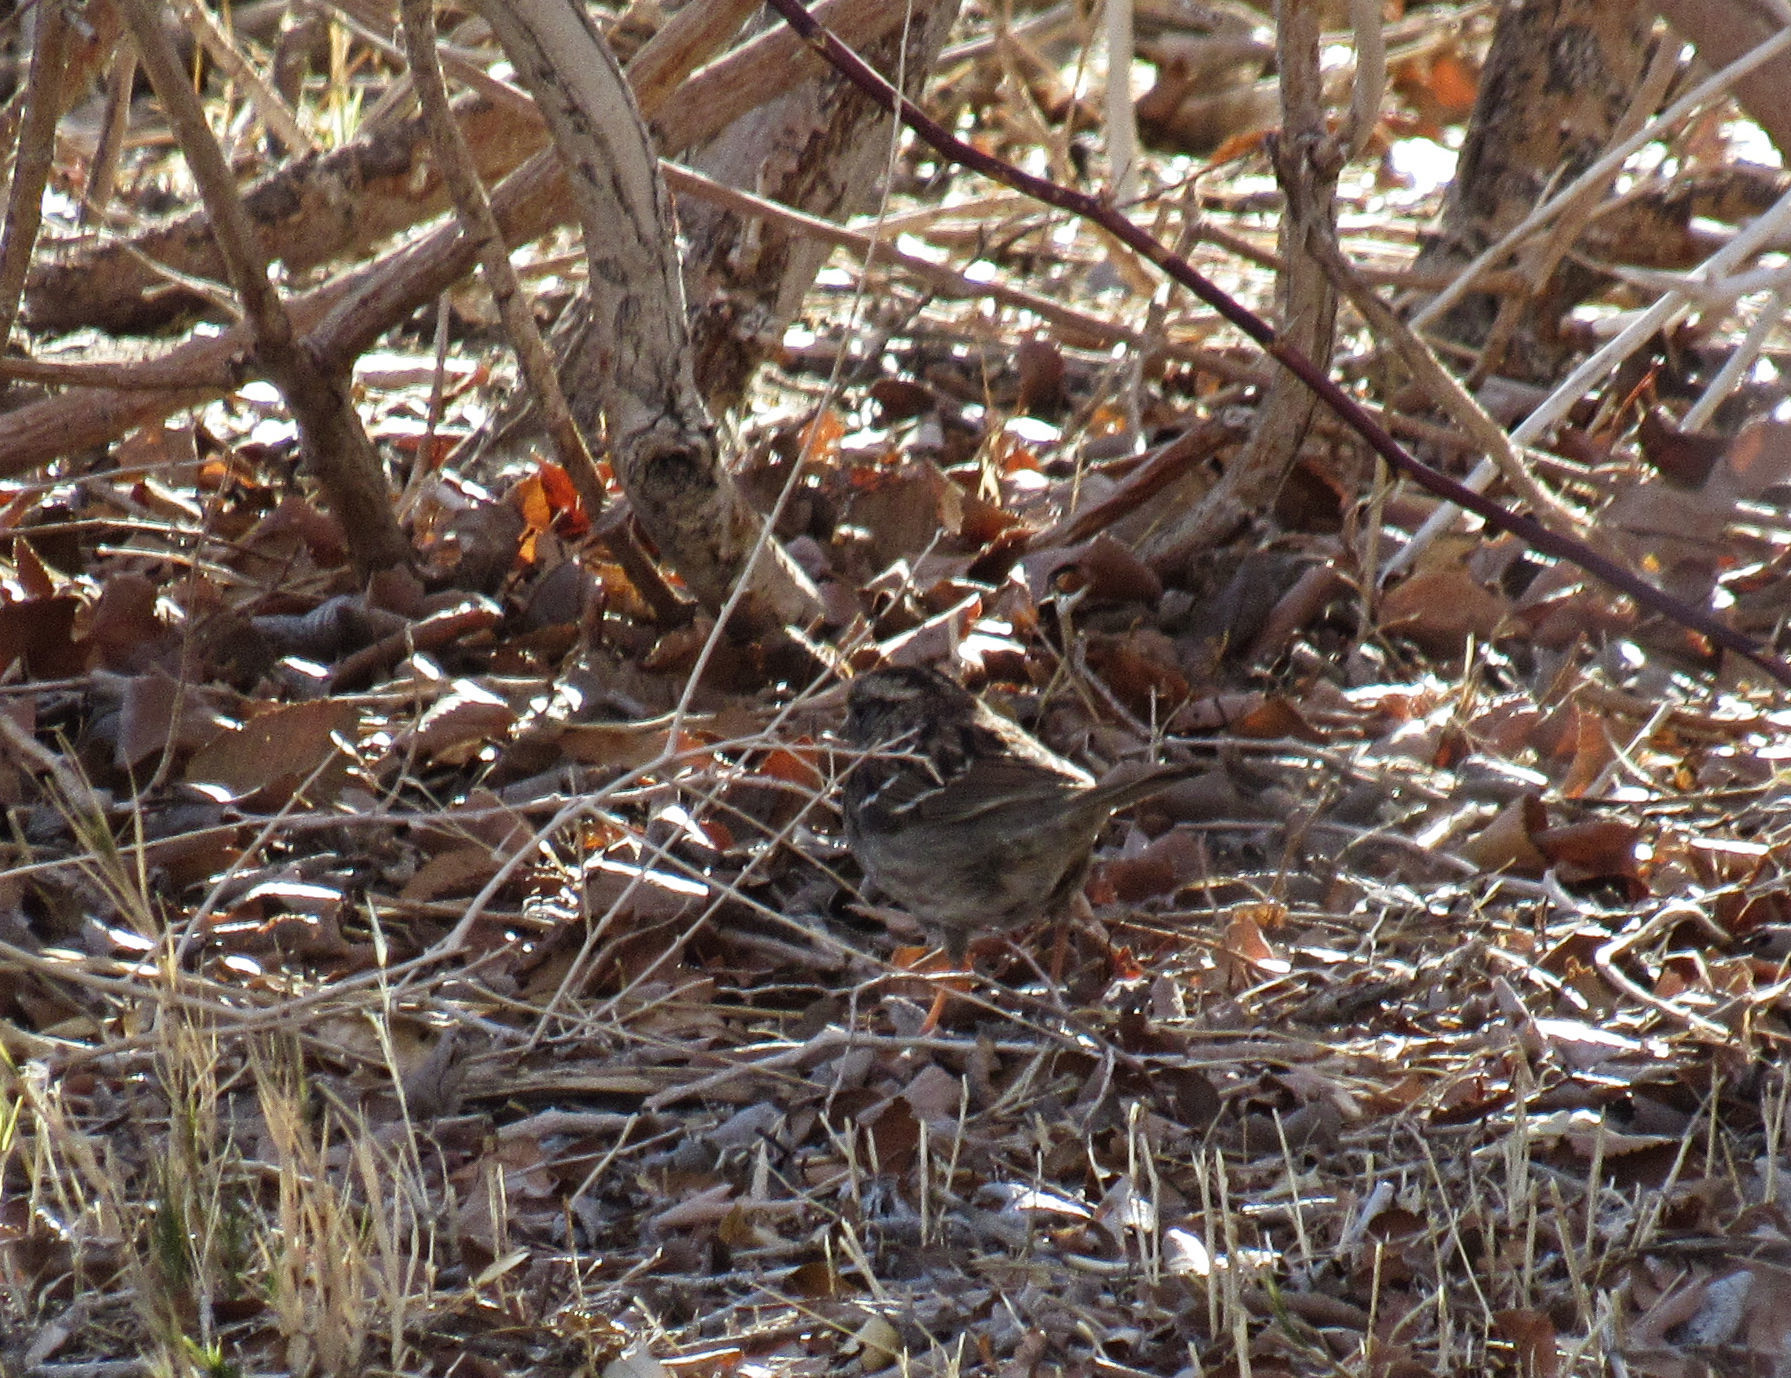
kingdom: Animalia
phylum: Chordata
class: Aves
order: Passeriformes
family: Passerellidae
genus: Zonotrichia
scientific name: Zonotrichia albicollis
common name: White-throated sparrow
